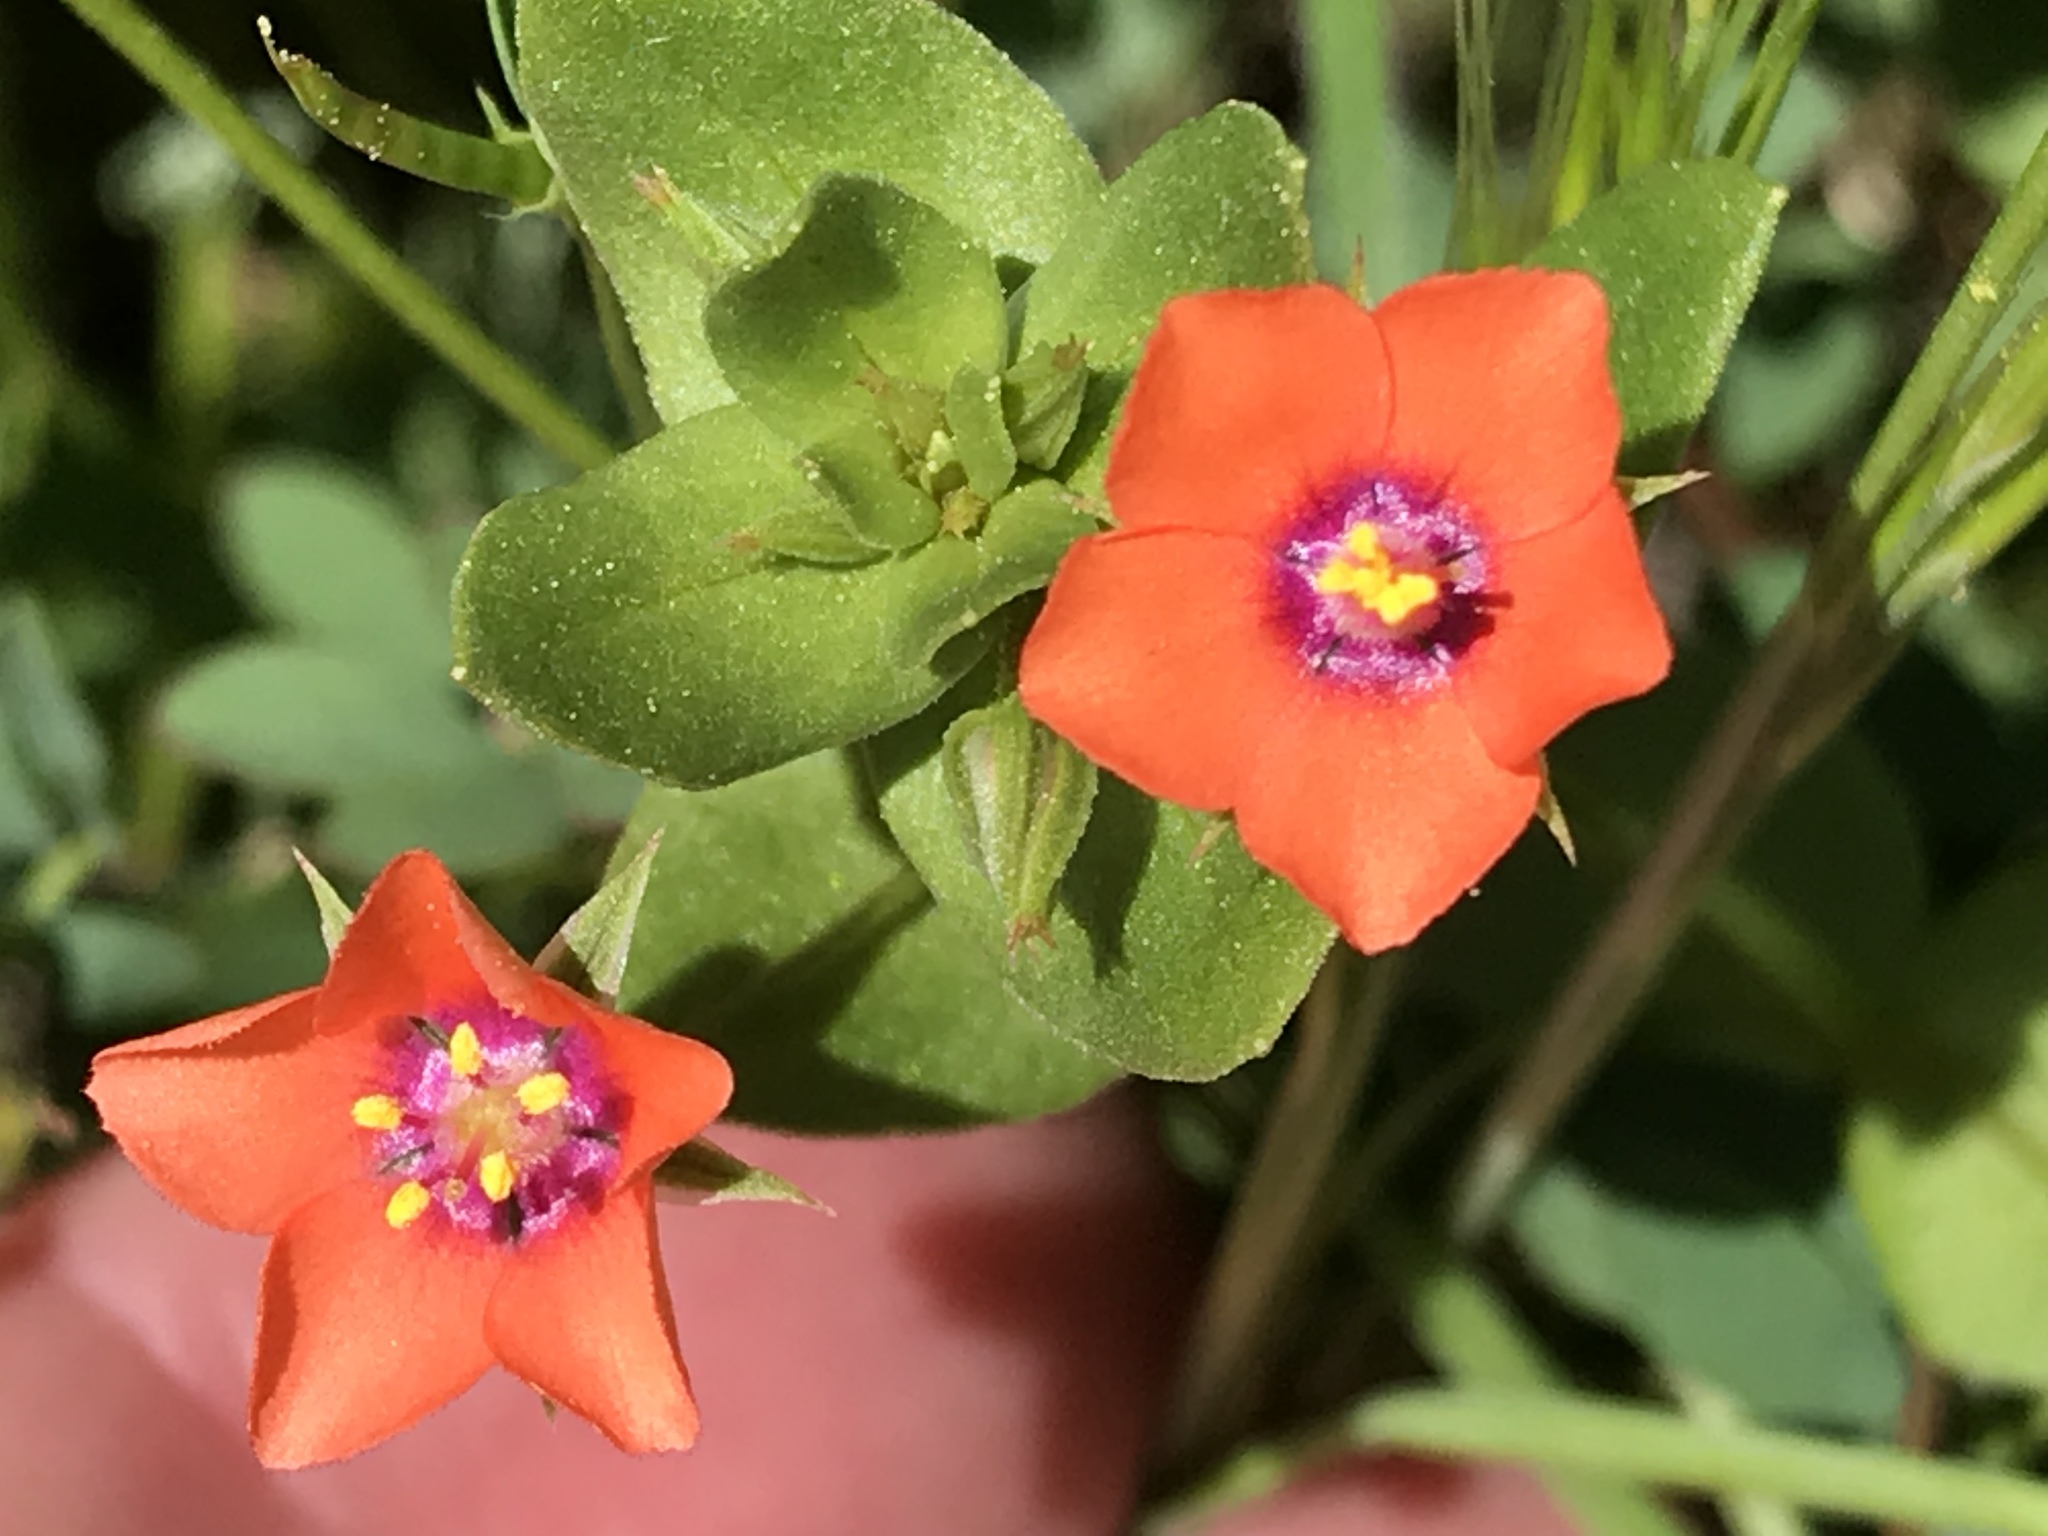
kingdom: Plantae
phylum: Tracheophyta
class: Magnoliopsida
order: Ericales
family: Primulaceae
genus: Lysimachia
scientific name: Lysimachia arvensis
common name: Scarlet pimpernel
